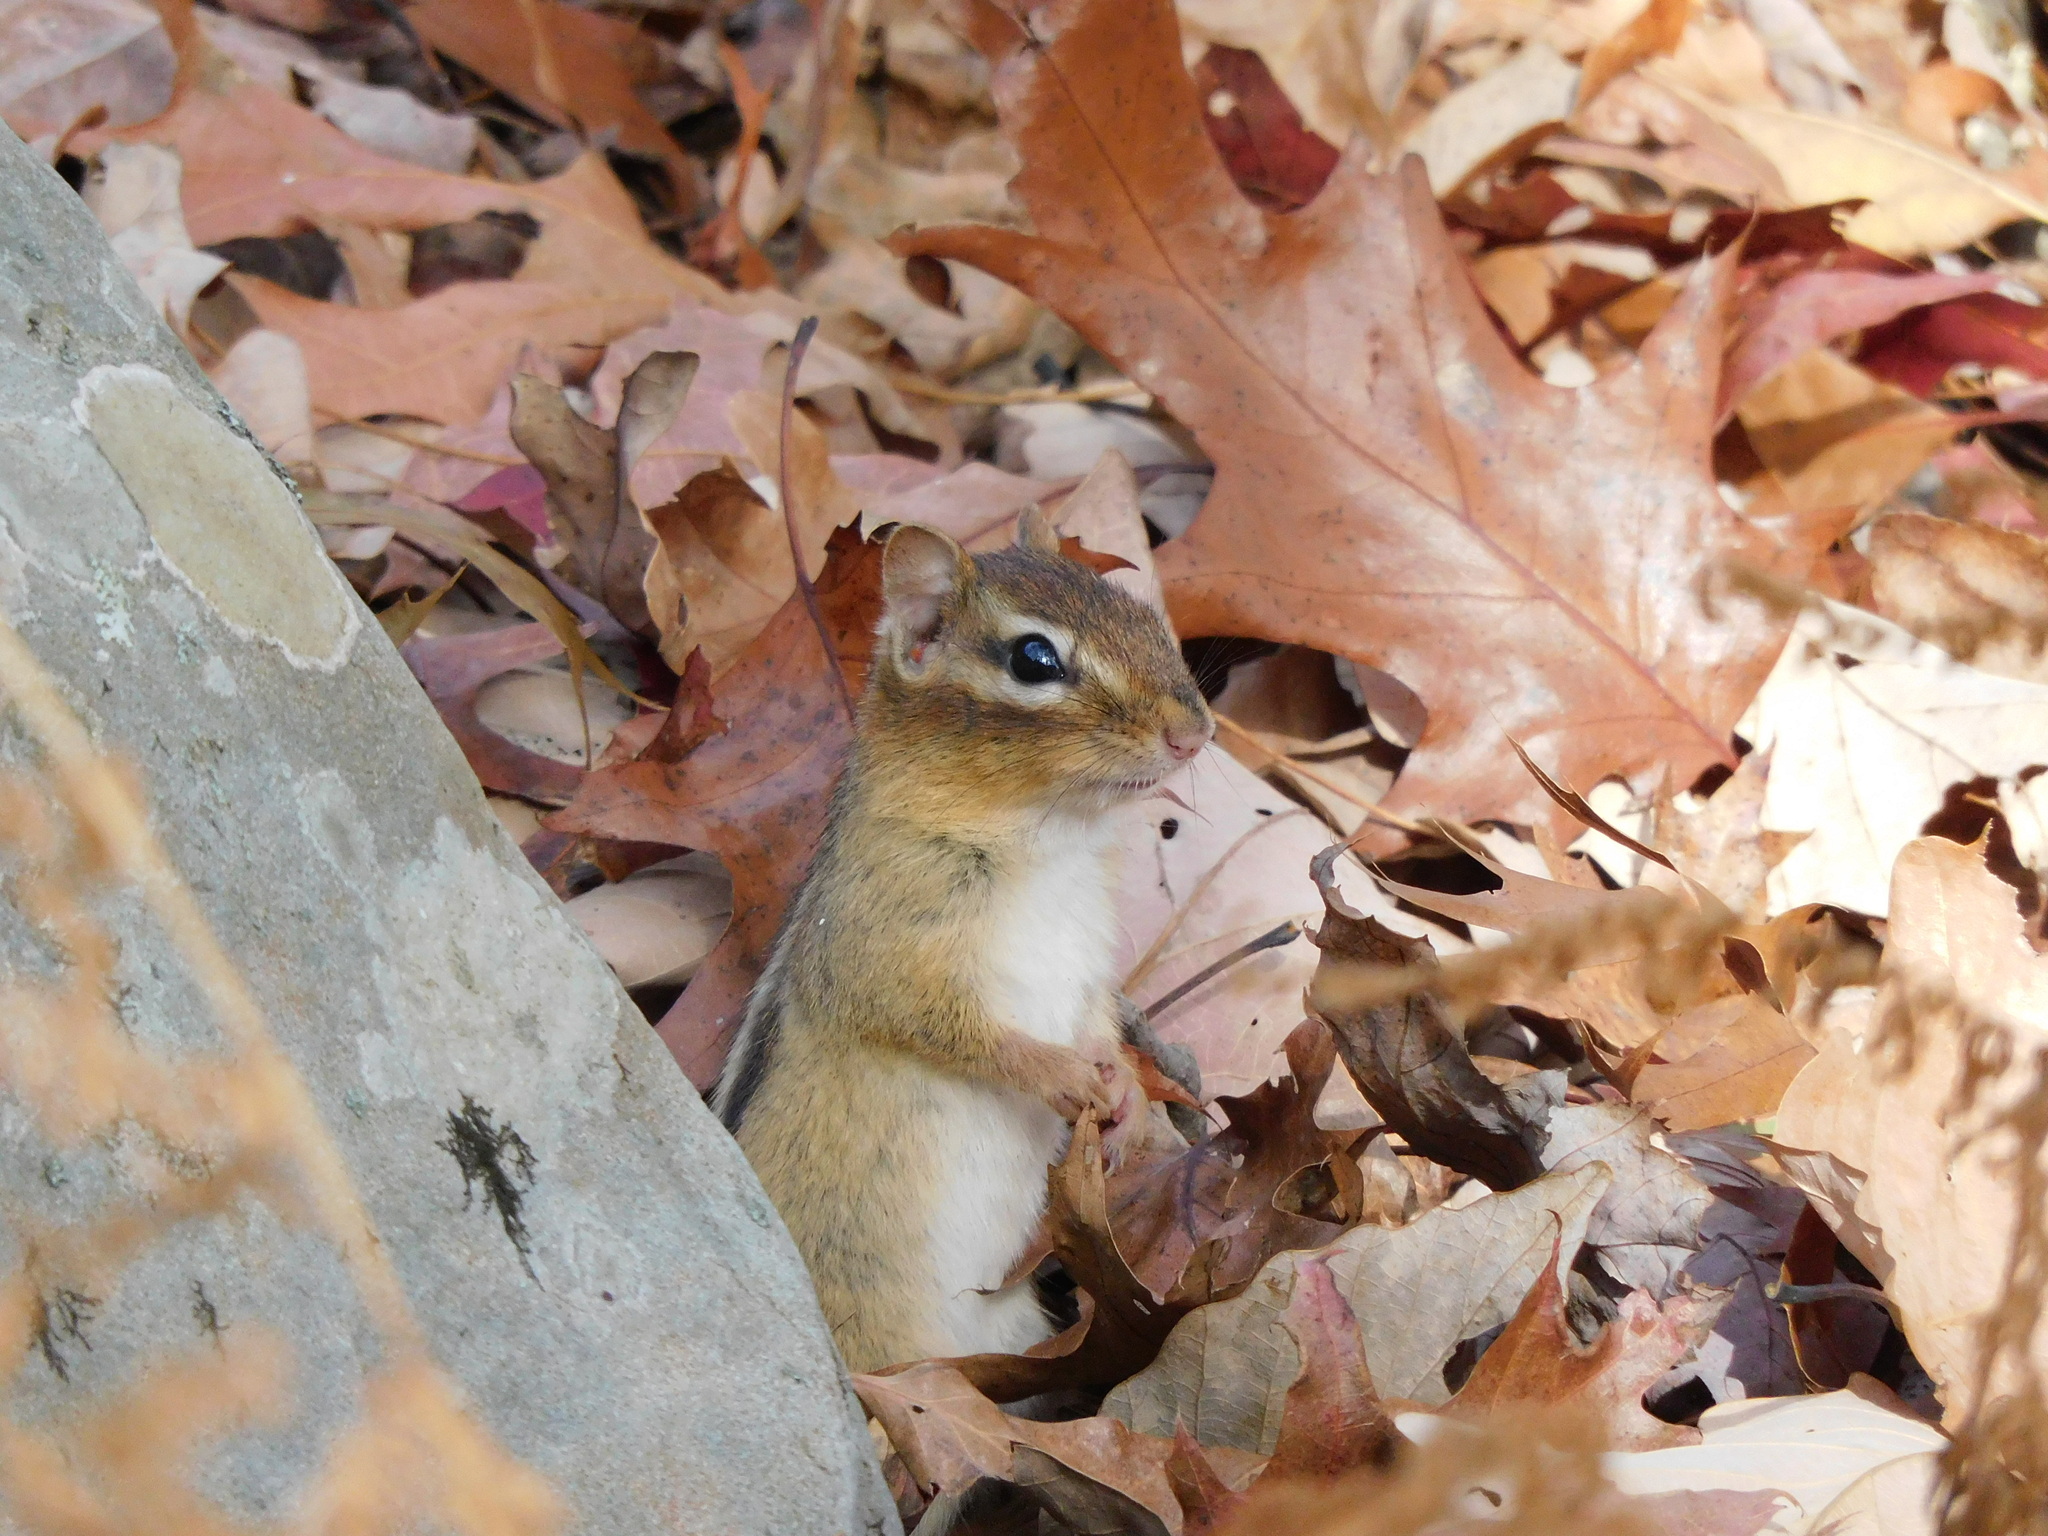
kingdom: Animalia
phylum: Chordata
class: Mammalia
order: Rodentia
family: Sciuridae
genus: Tamias
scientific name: Tamias striatus
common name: Eastern chipmunk
